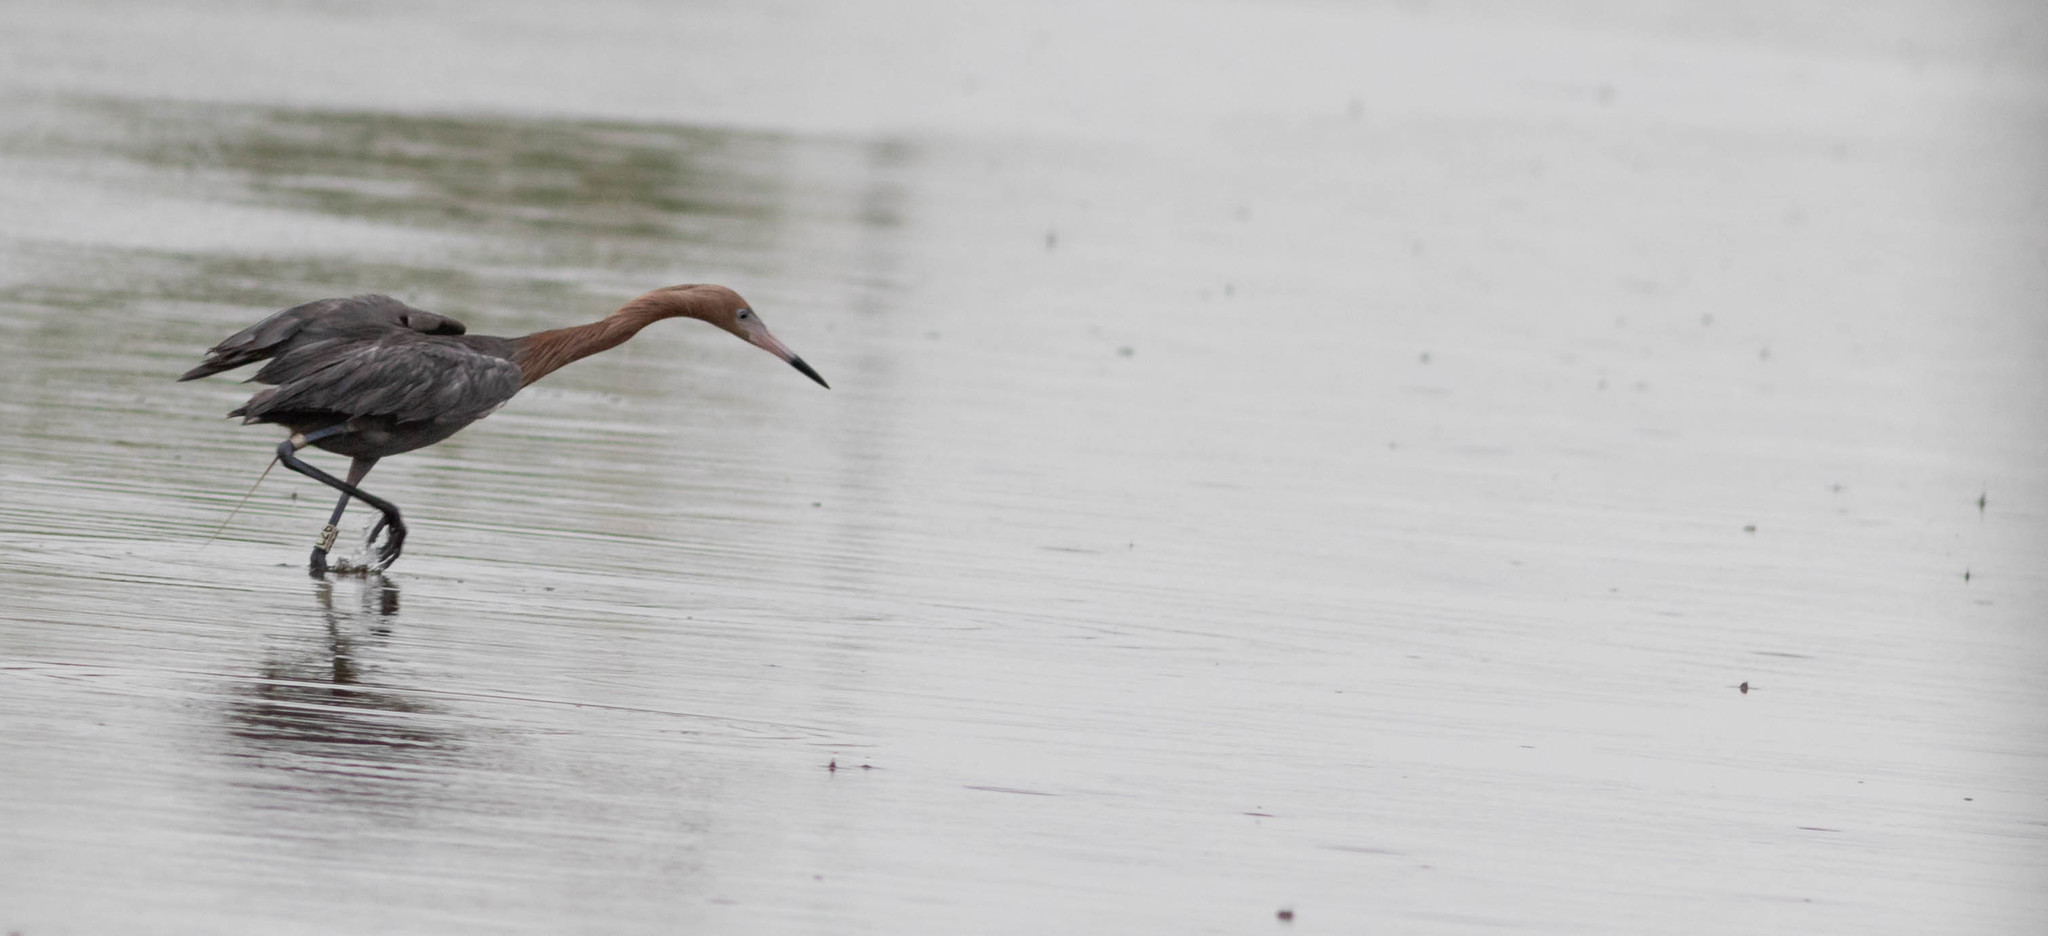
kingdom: Animalia
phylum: Chordata
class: Aves
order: Pelecaniformes
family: Ardeidae
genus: Egretta
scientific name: Egretta rufescens
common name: Reddish egret
